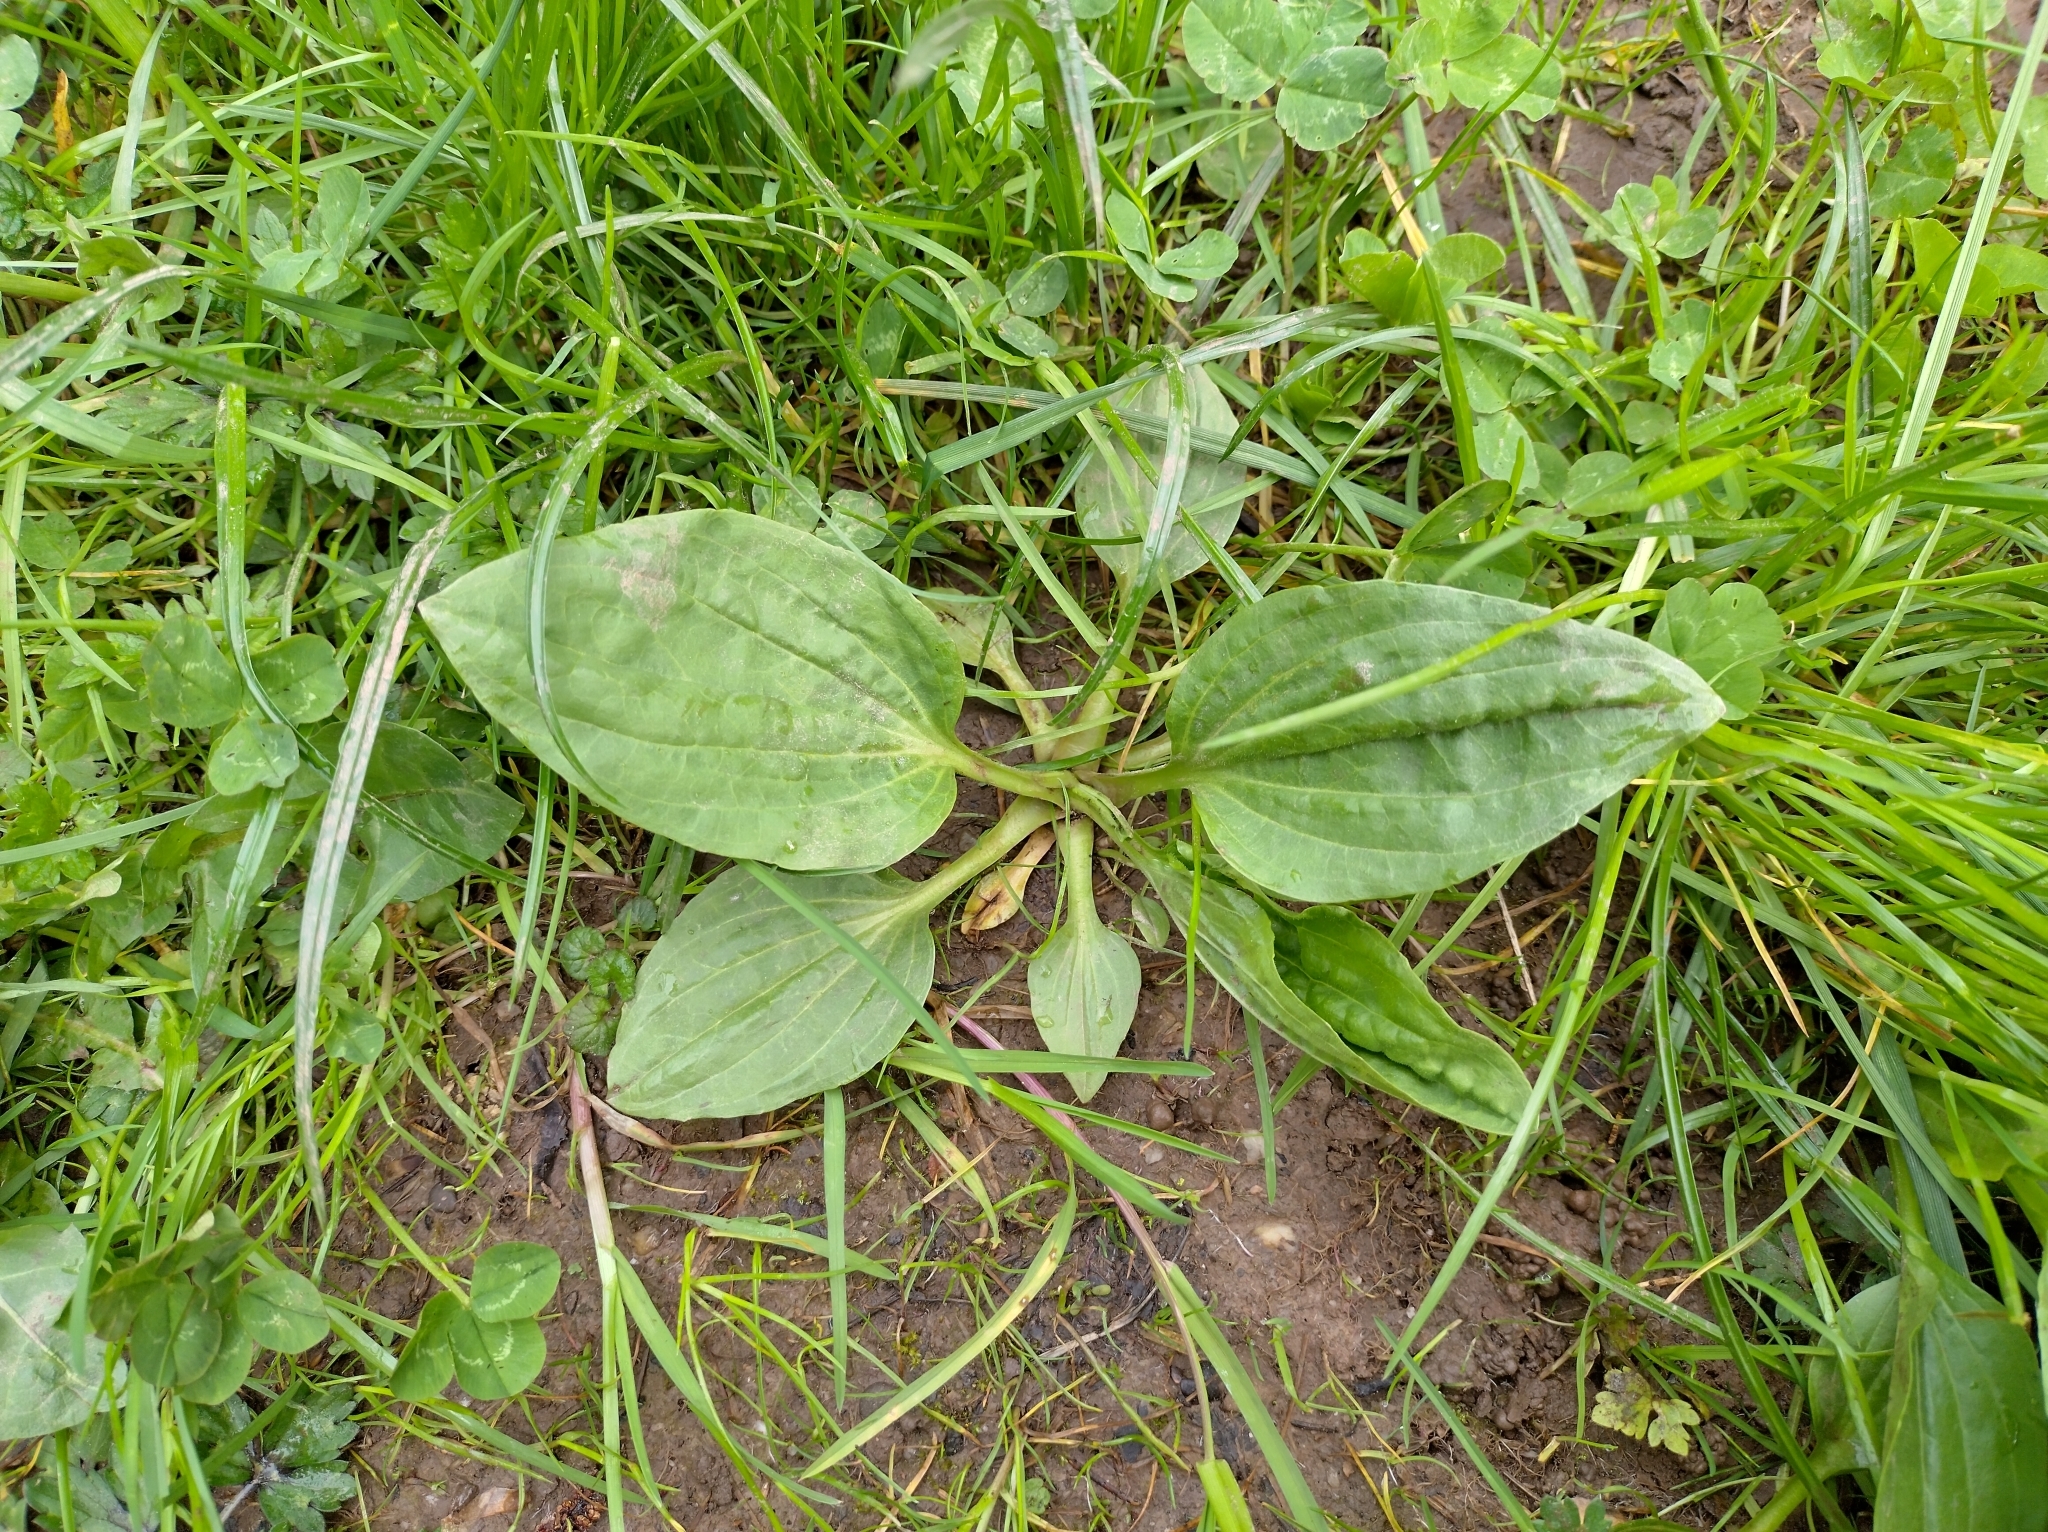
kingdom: Plantae
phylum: Tracheophyta
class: Magnoliopsida
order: Lamiales
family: Plantaginaceae
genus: Plantago
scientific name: Plantago major
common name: Common plantain
